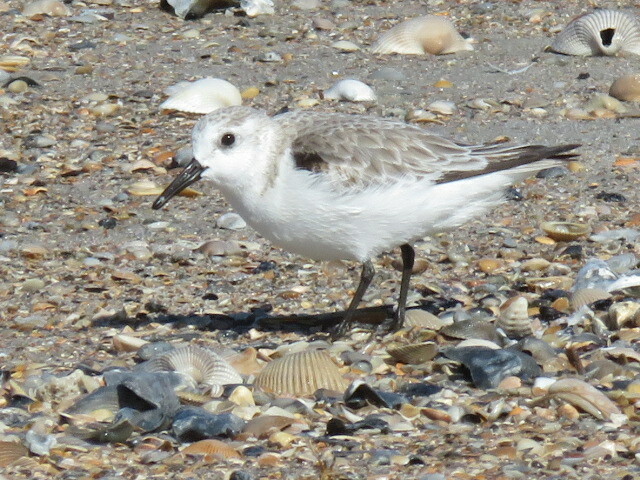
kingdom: Animalia
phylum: Chordata
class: Aves
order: Charadriiformes
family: Scolopacidae
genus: Calidris
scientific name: Calidris alba
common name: Sanderling
